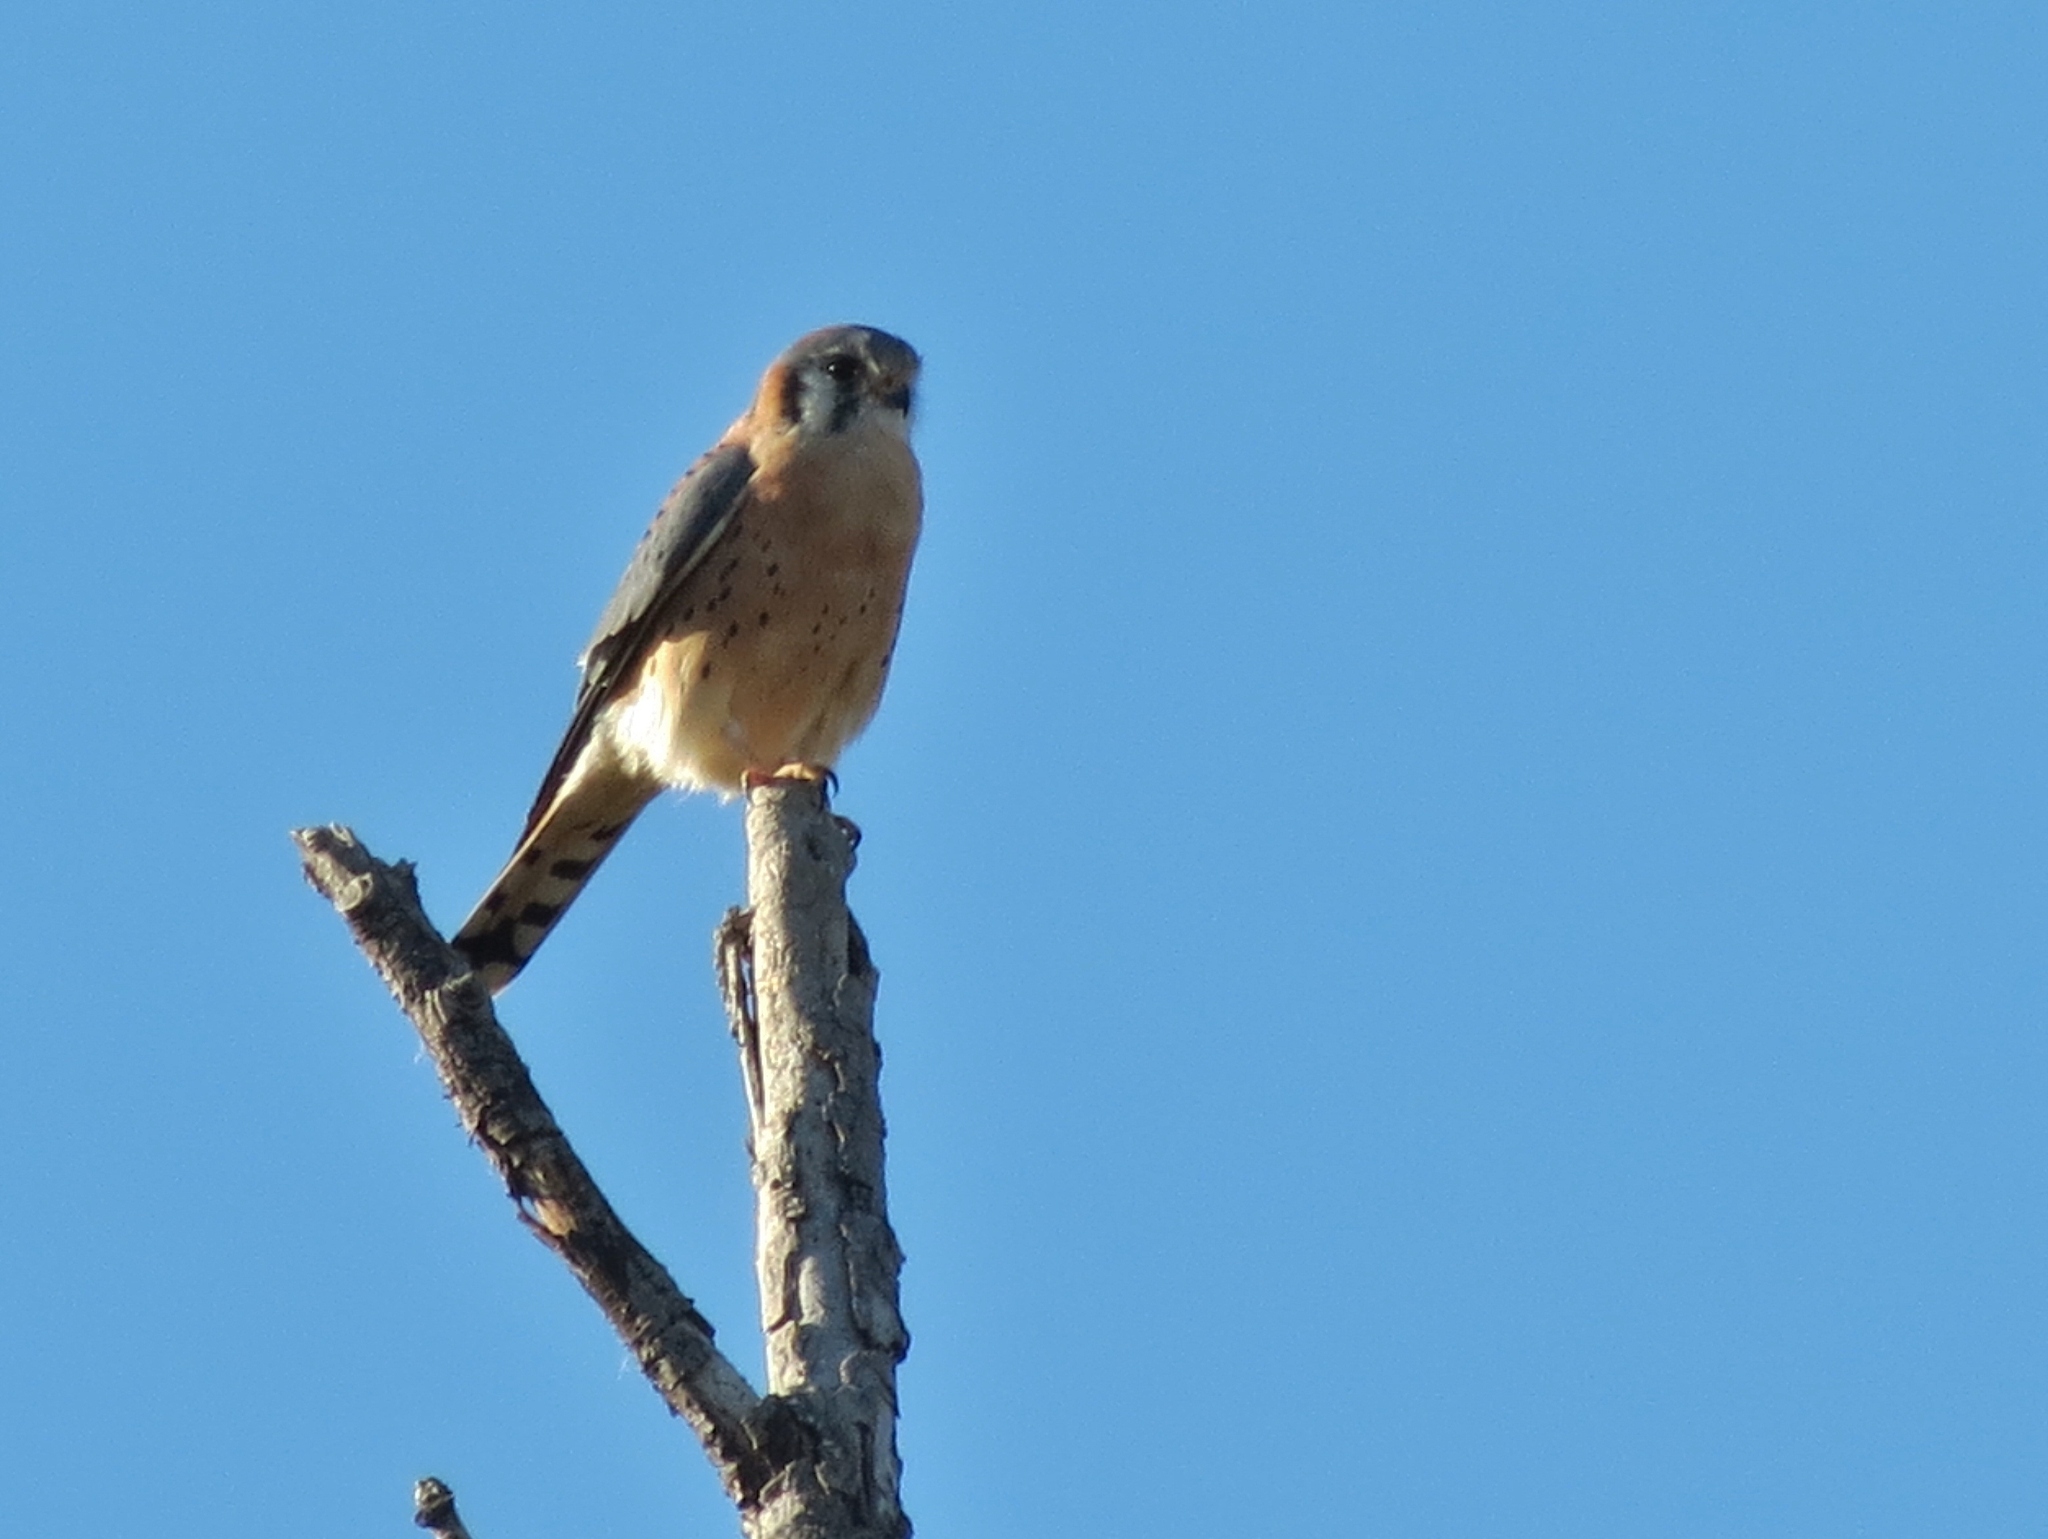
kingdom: Animalia
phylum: Chordata
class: Aves
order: Falconiformes
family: Falconidae
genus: Falco
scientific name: Falco sparverius
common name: American kestrel
